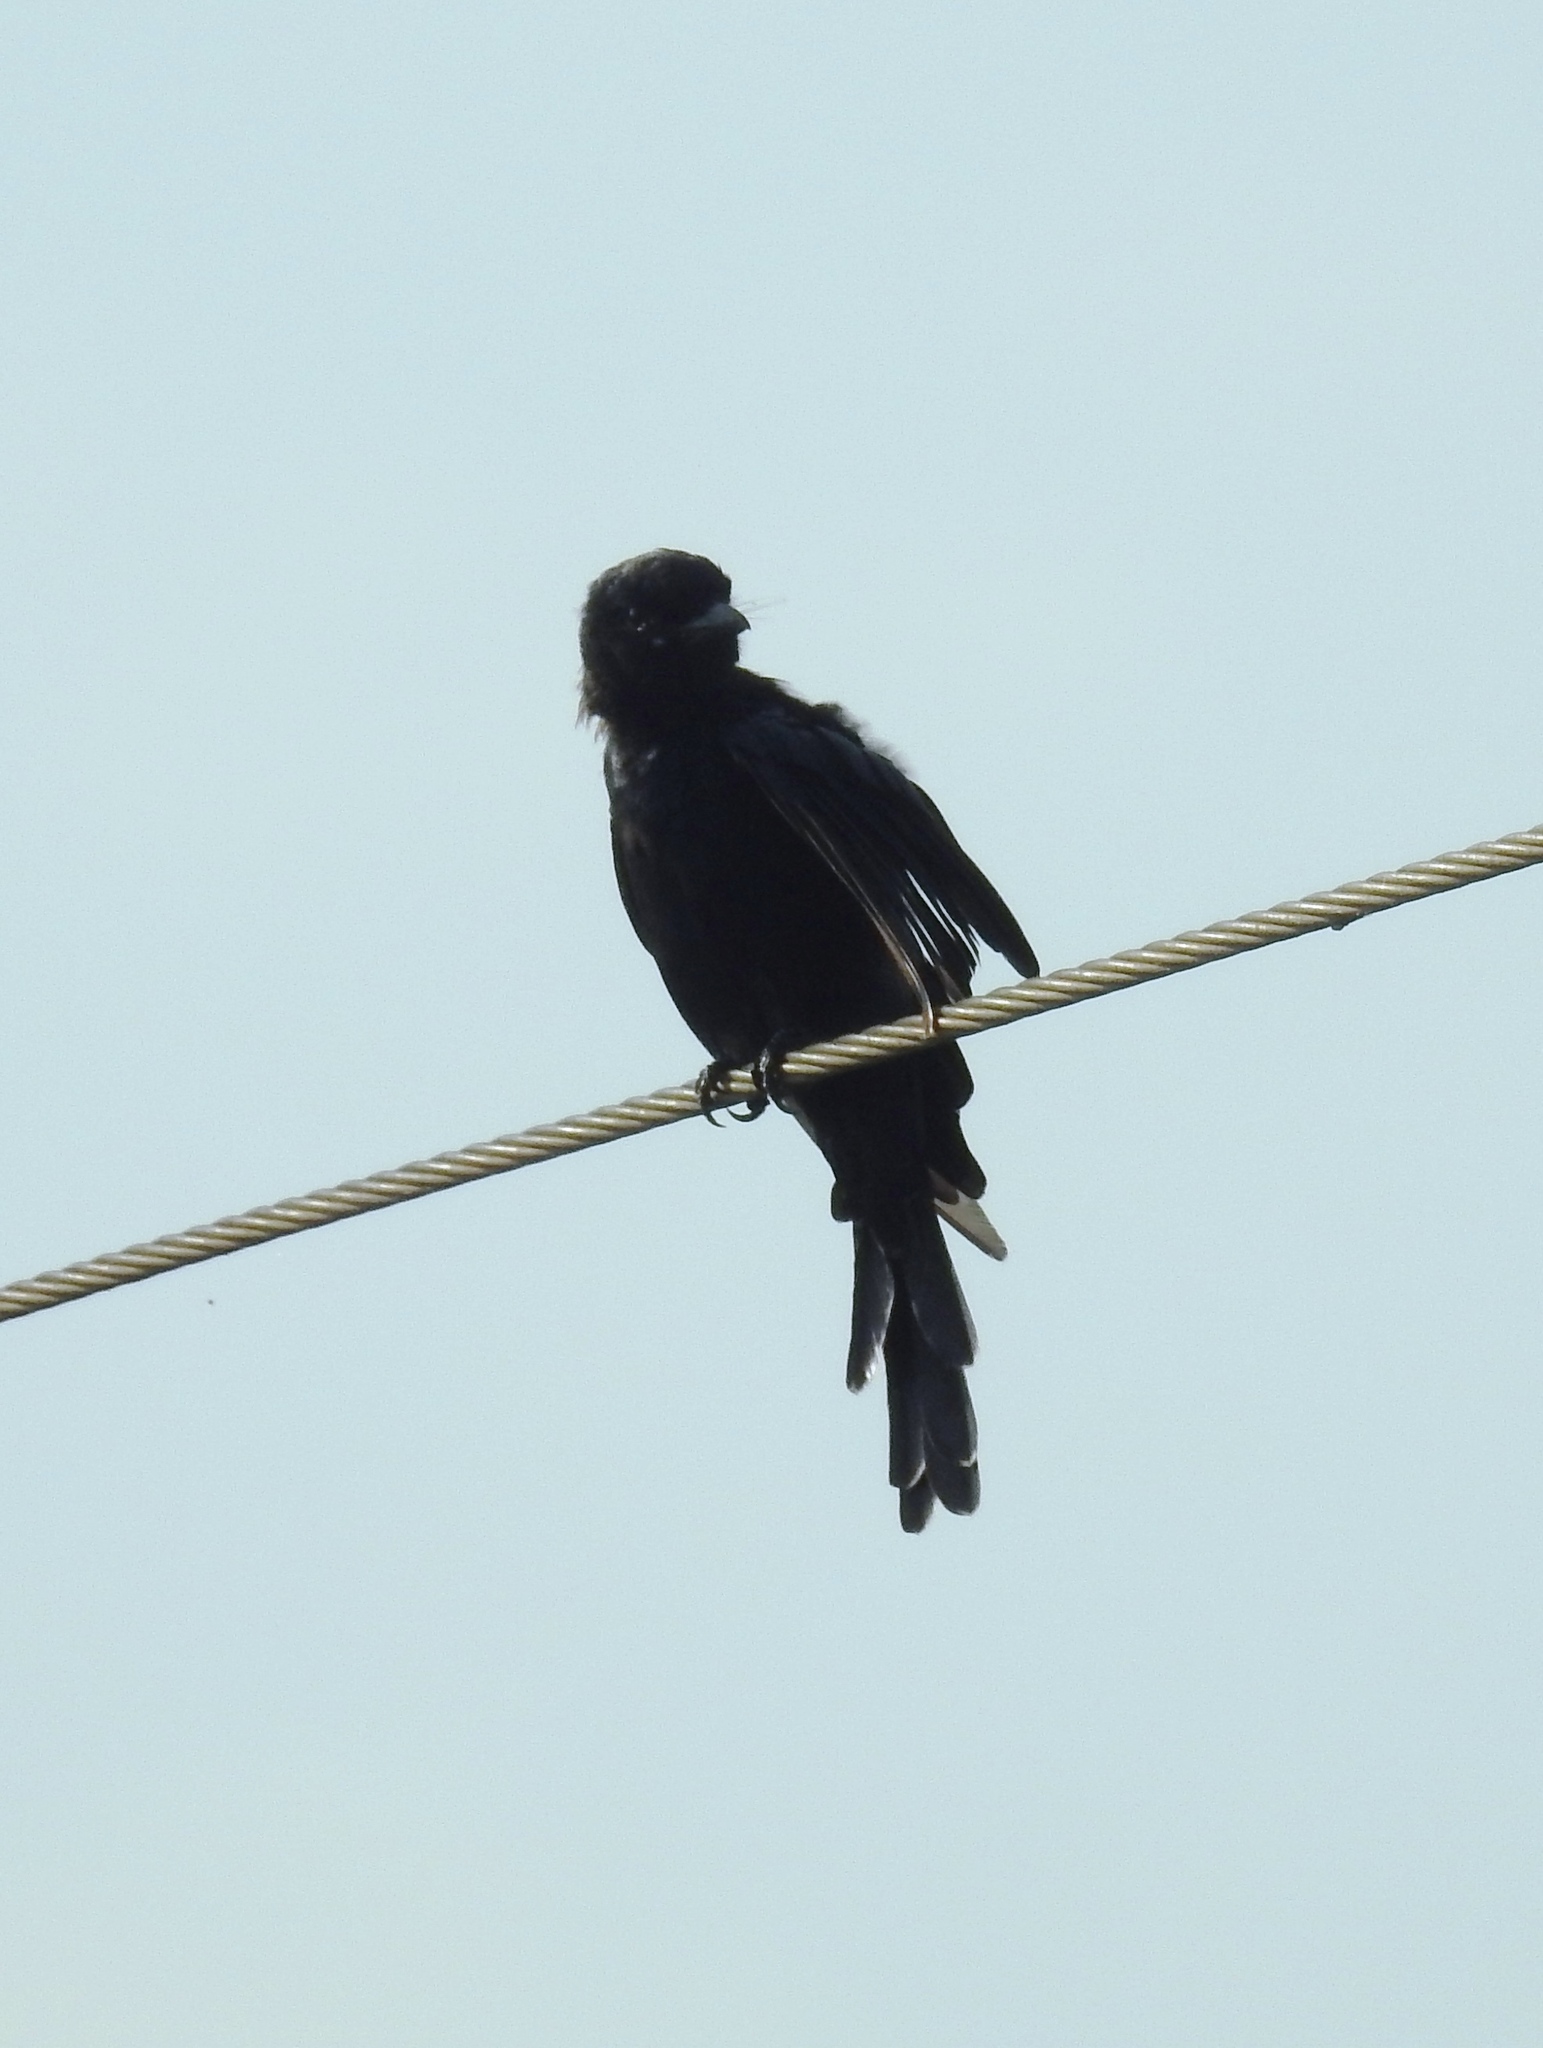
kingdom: Animalia
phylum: Chordata
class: Aves
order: Passeriformes
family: Dicruridae
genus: Dicrurus
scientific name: Dicrurus macrocercus
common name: Black drongo
